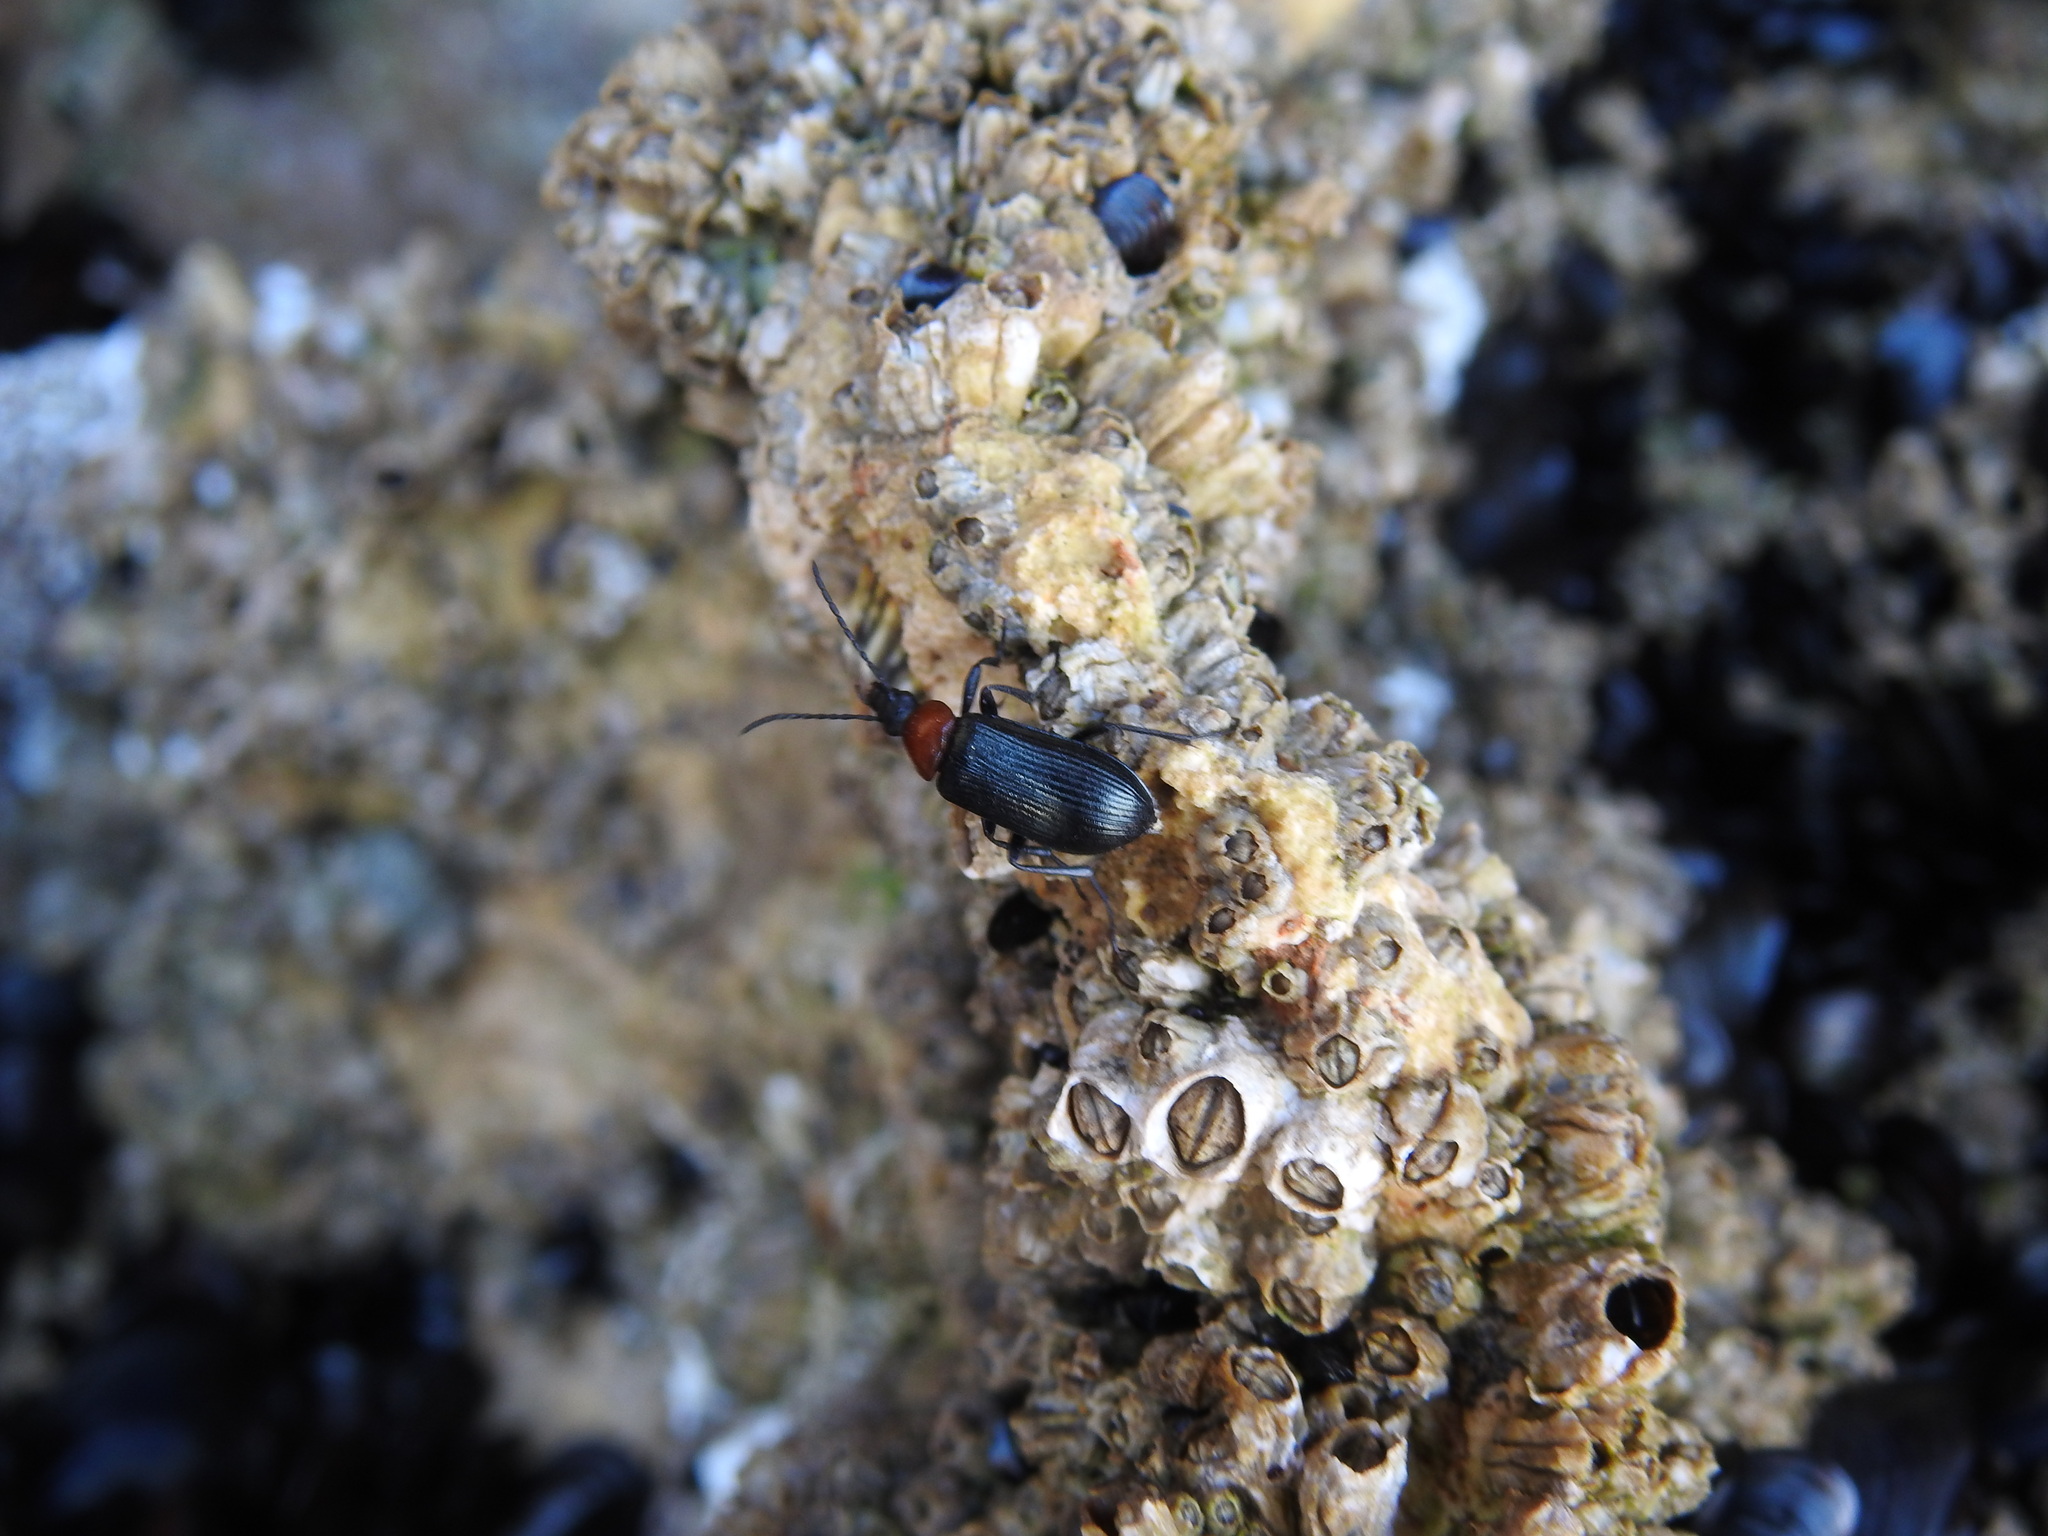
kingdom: Animalia
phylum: Arthropoda
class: Insecta
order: Coleoptera
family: Tenebrionidae
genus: Heliotaurus
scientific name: Heliotaurus ruficollis
